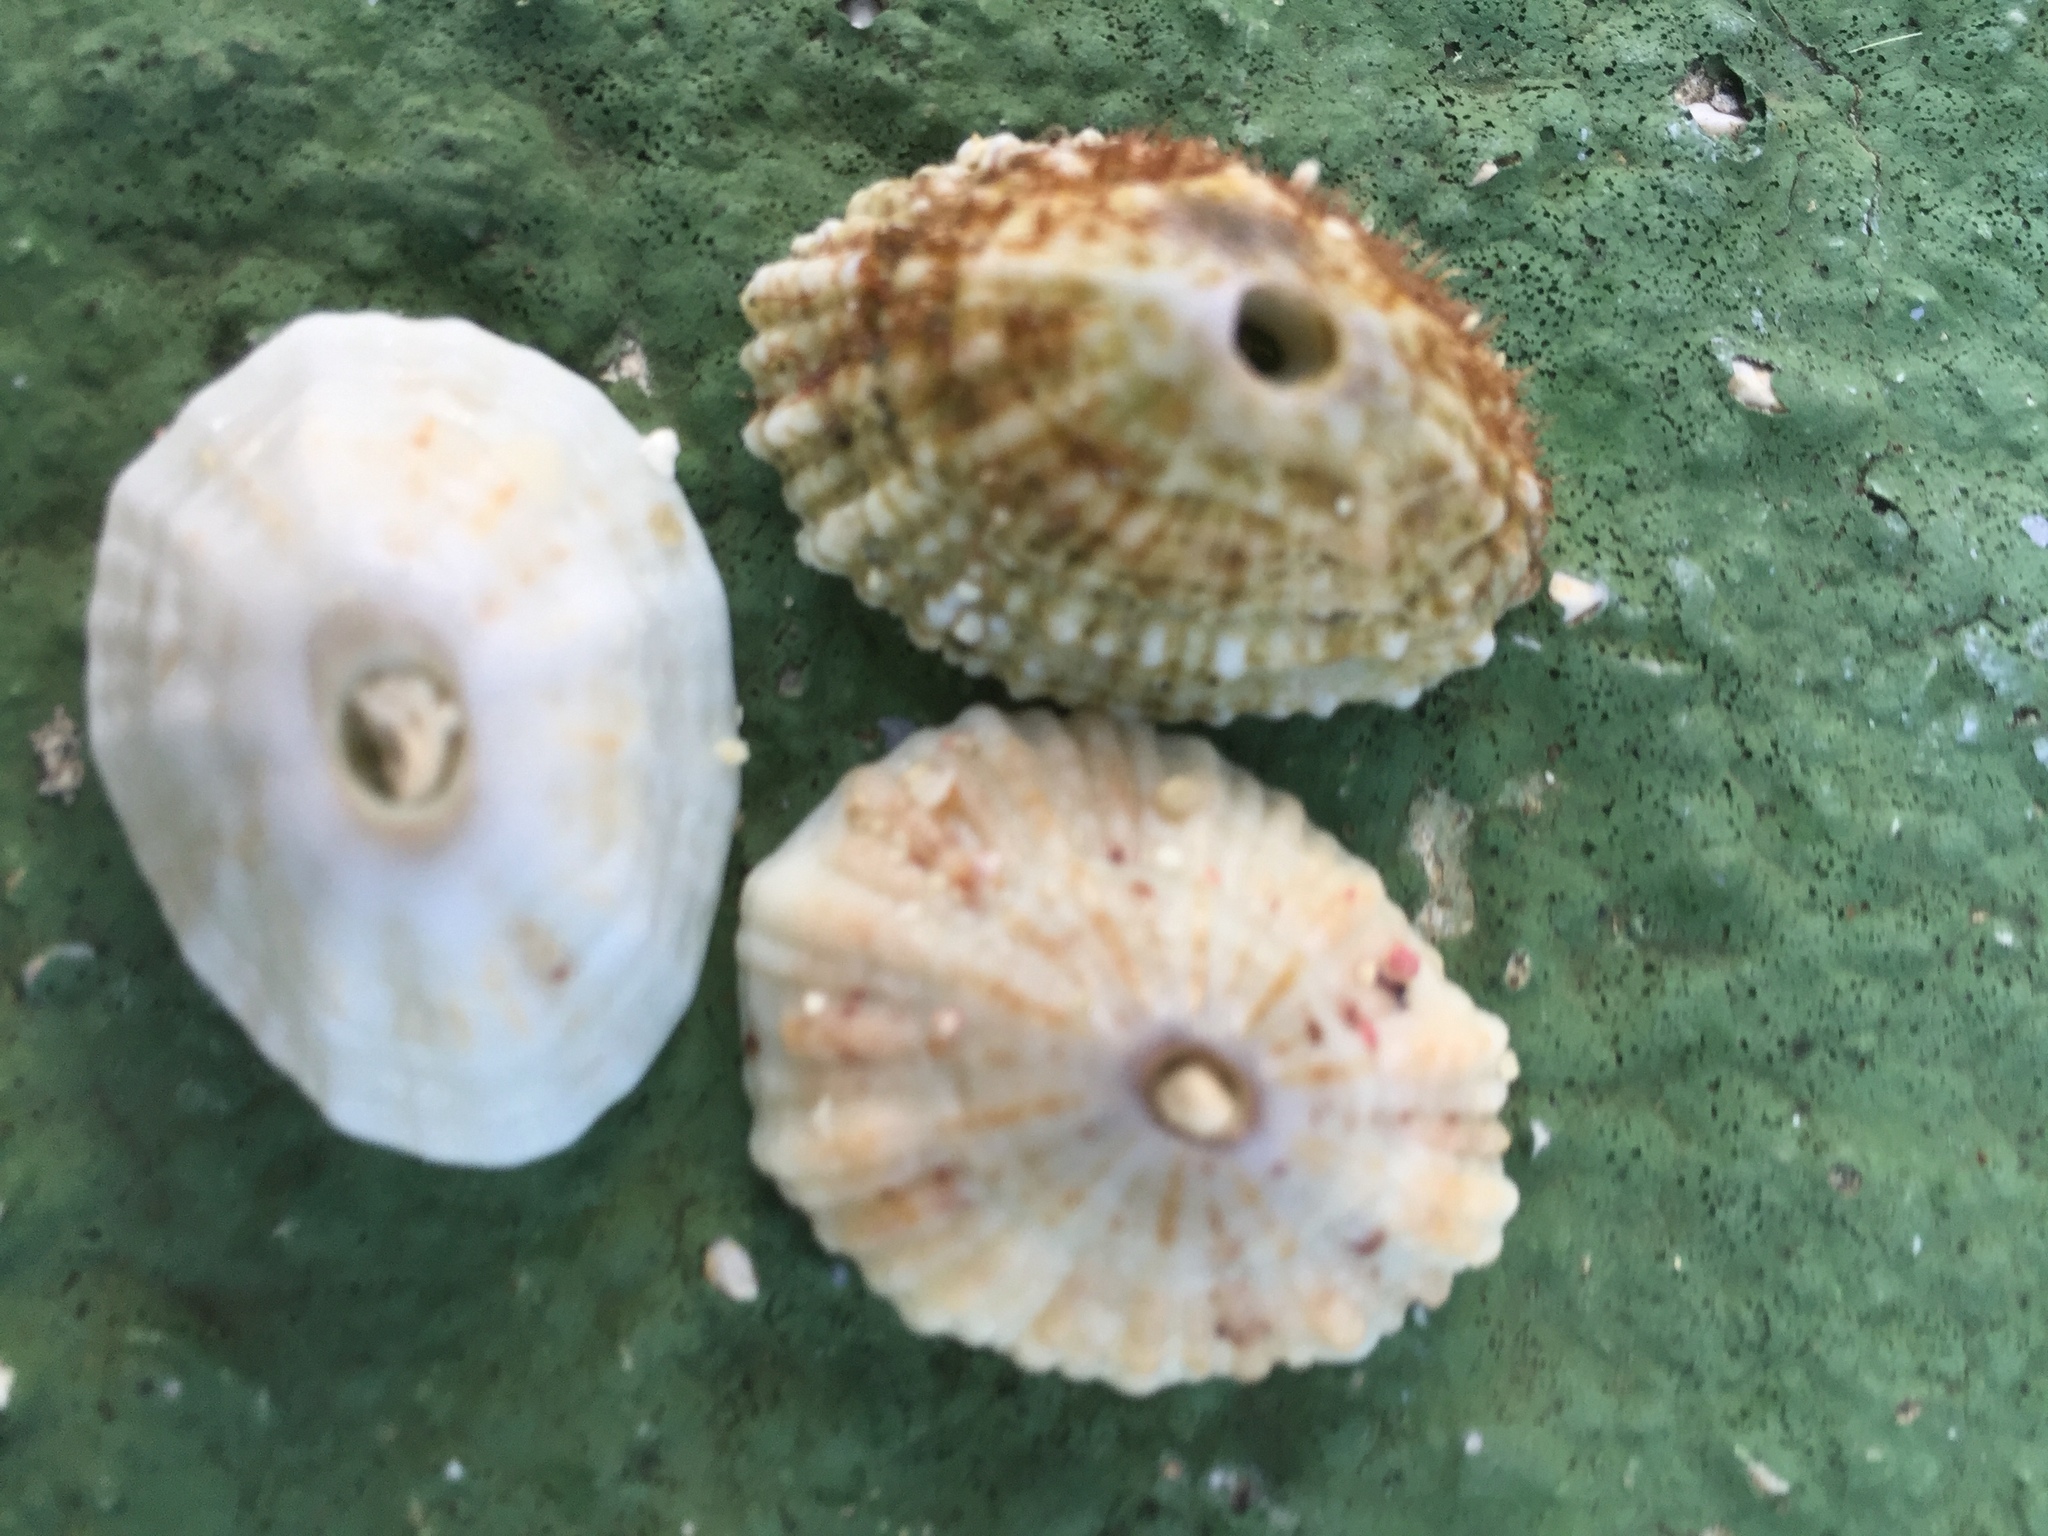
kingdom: Animalia
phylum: Mollusca
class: Gastropoda
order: Lepetellida
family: Fissurellidae
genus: Fissurella
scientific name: Fissurella barbadensis
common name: Barbados keyhole limpet
